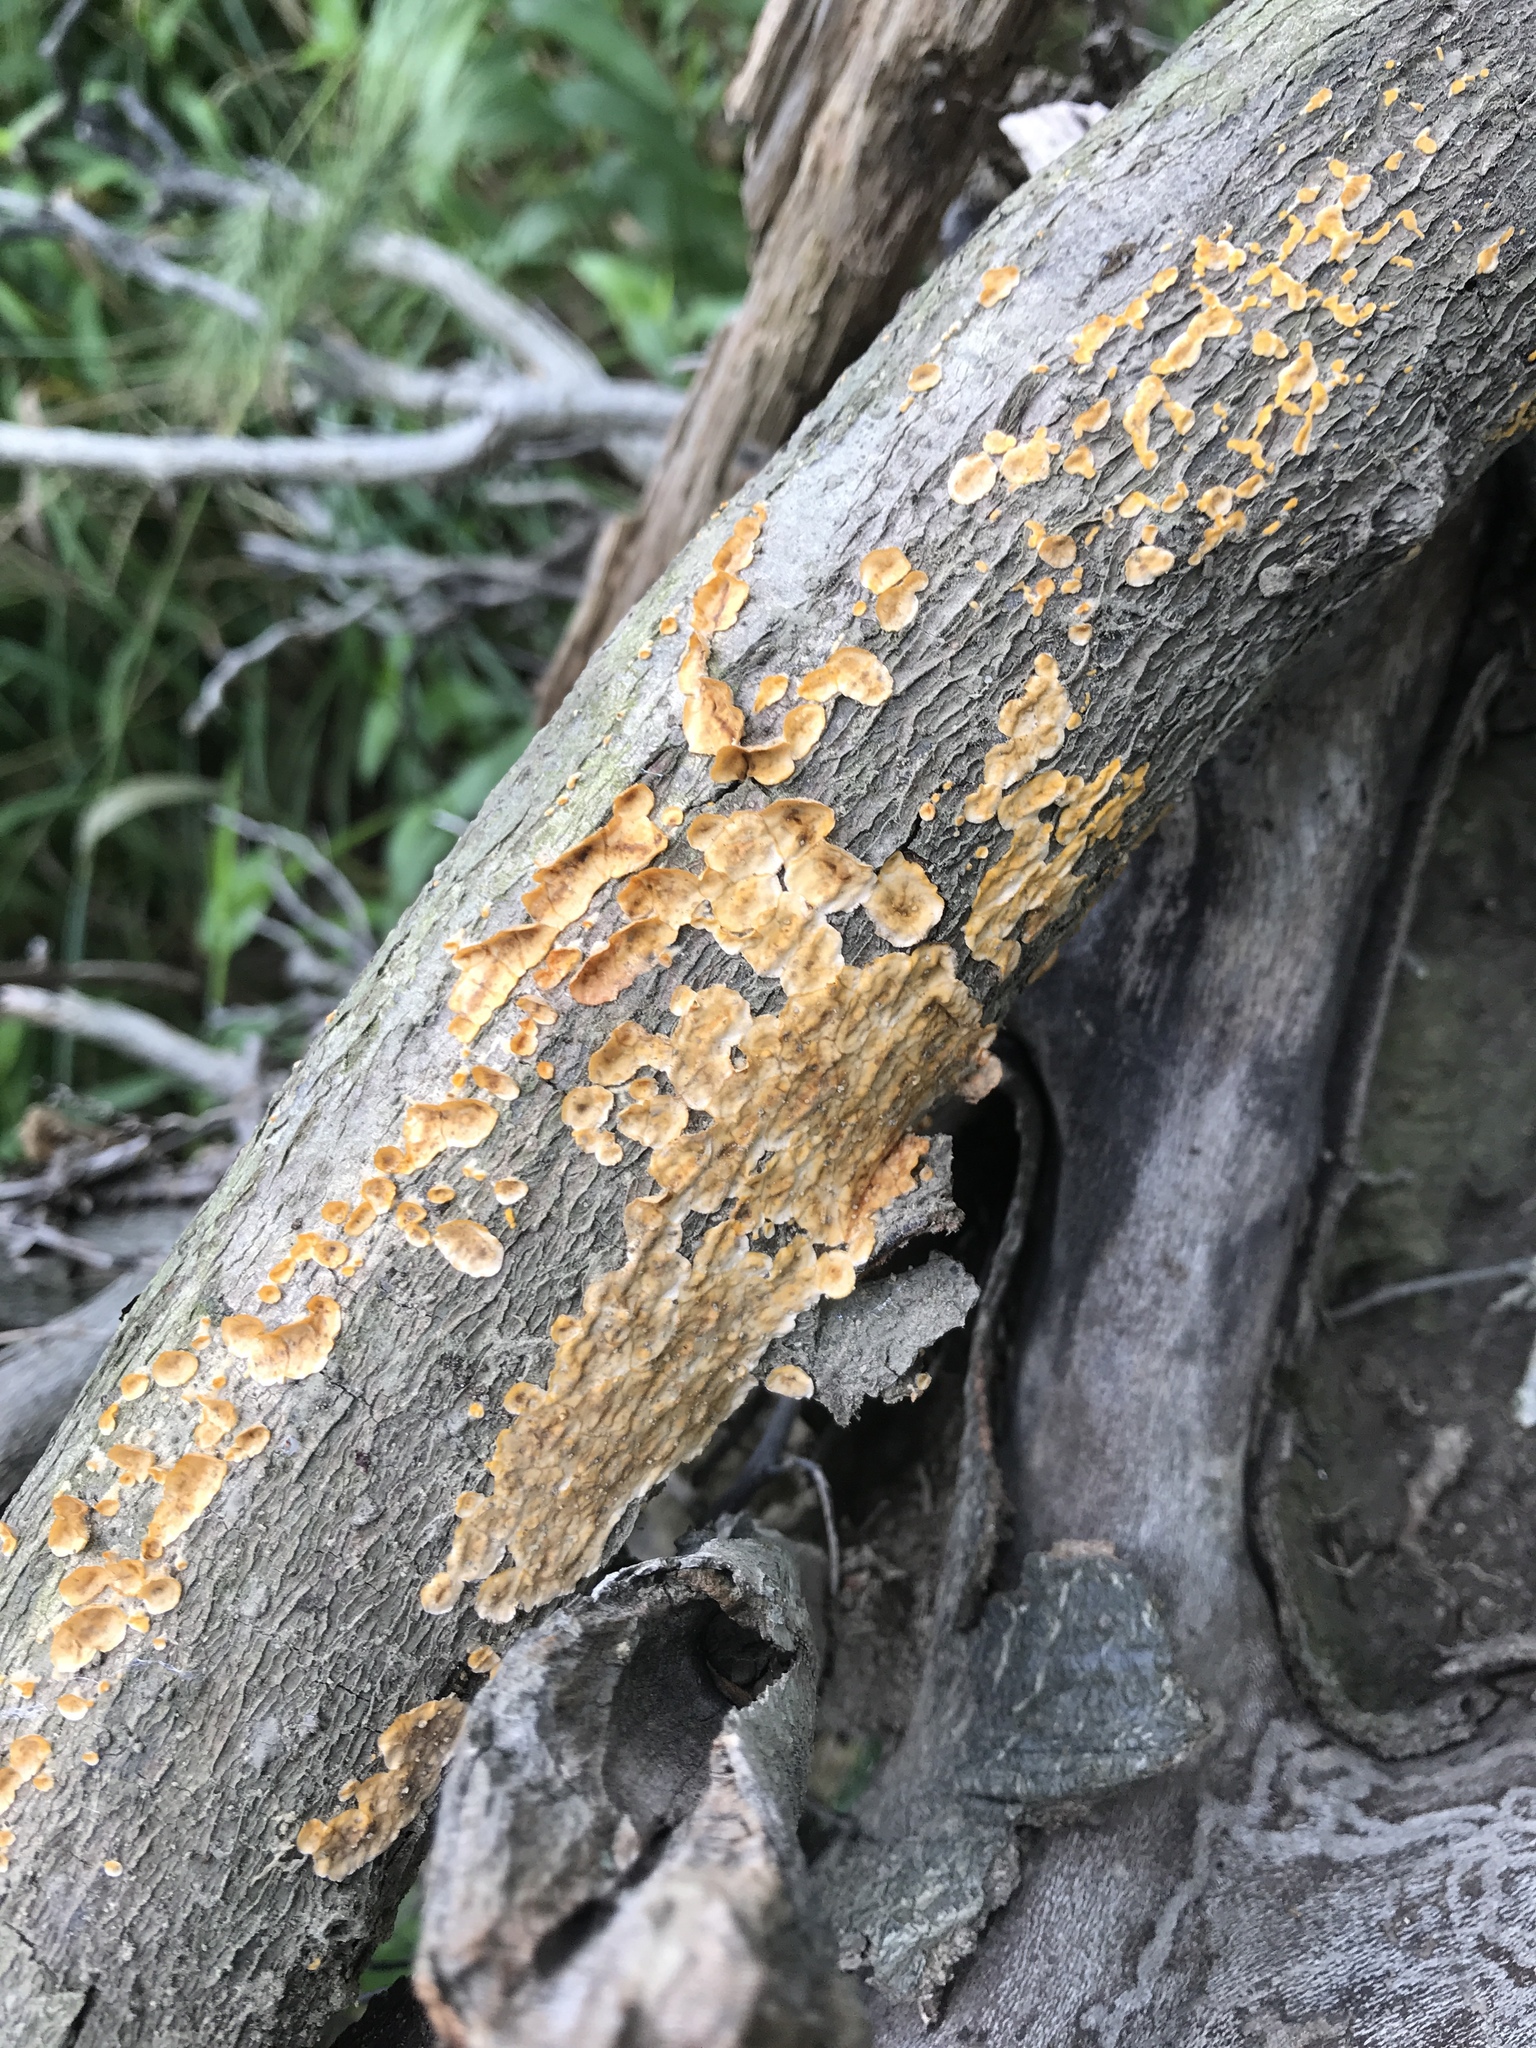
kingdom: Fungi
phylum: Basidiomycota
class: Agaricomycetes
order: Russulales
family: Stereaceae
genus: Stereum
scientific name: Stereum complicatum
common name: Crowded parchment
